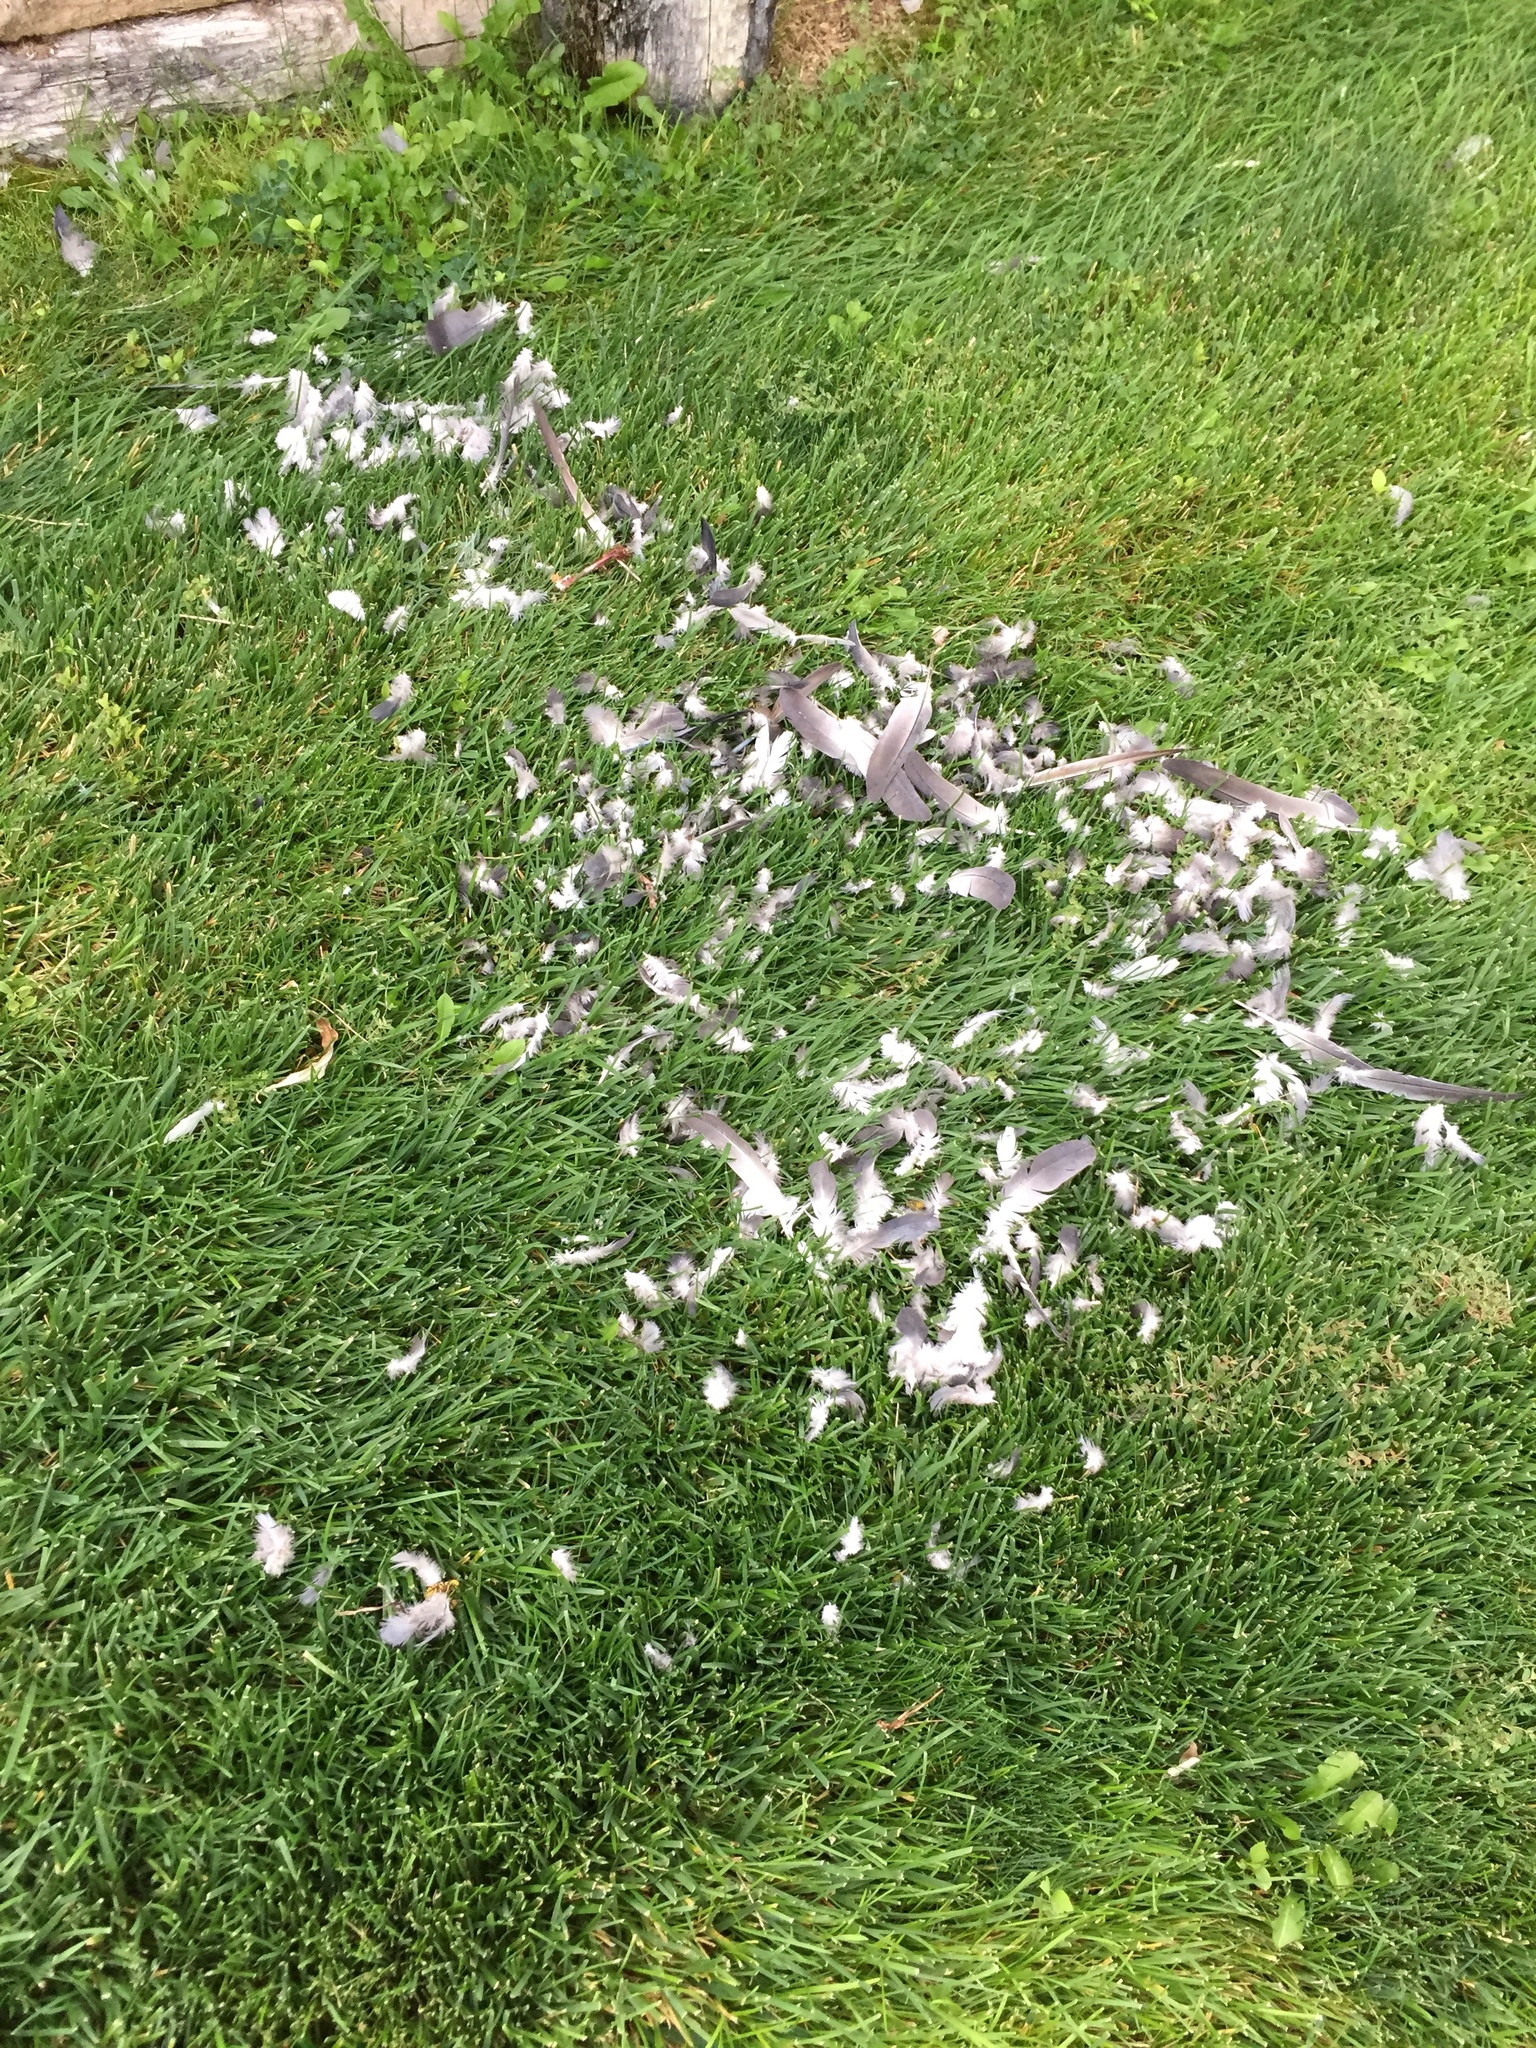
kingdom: Animalia
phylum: Arthropoda
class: Insecta
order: Hymenoptera
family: Vespidae
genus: Vespula
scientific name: Vespula pensylvanica
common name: Western yellowjacket
